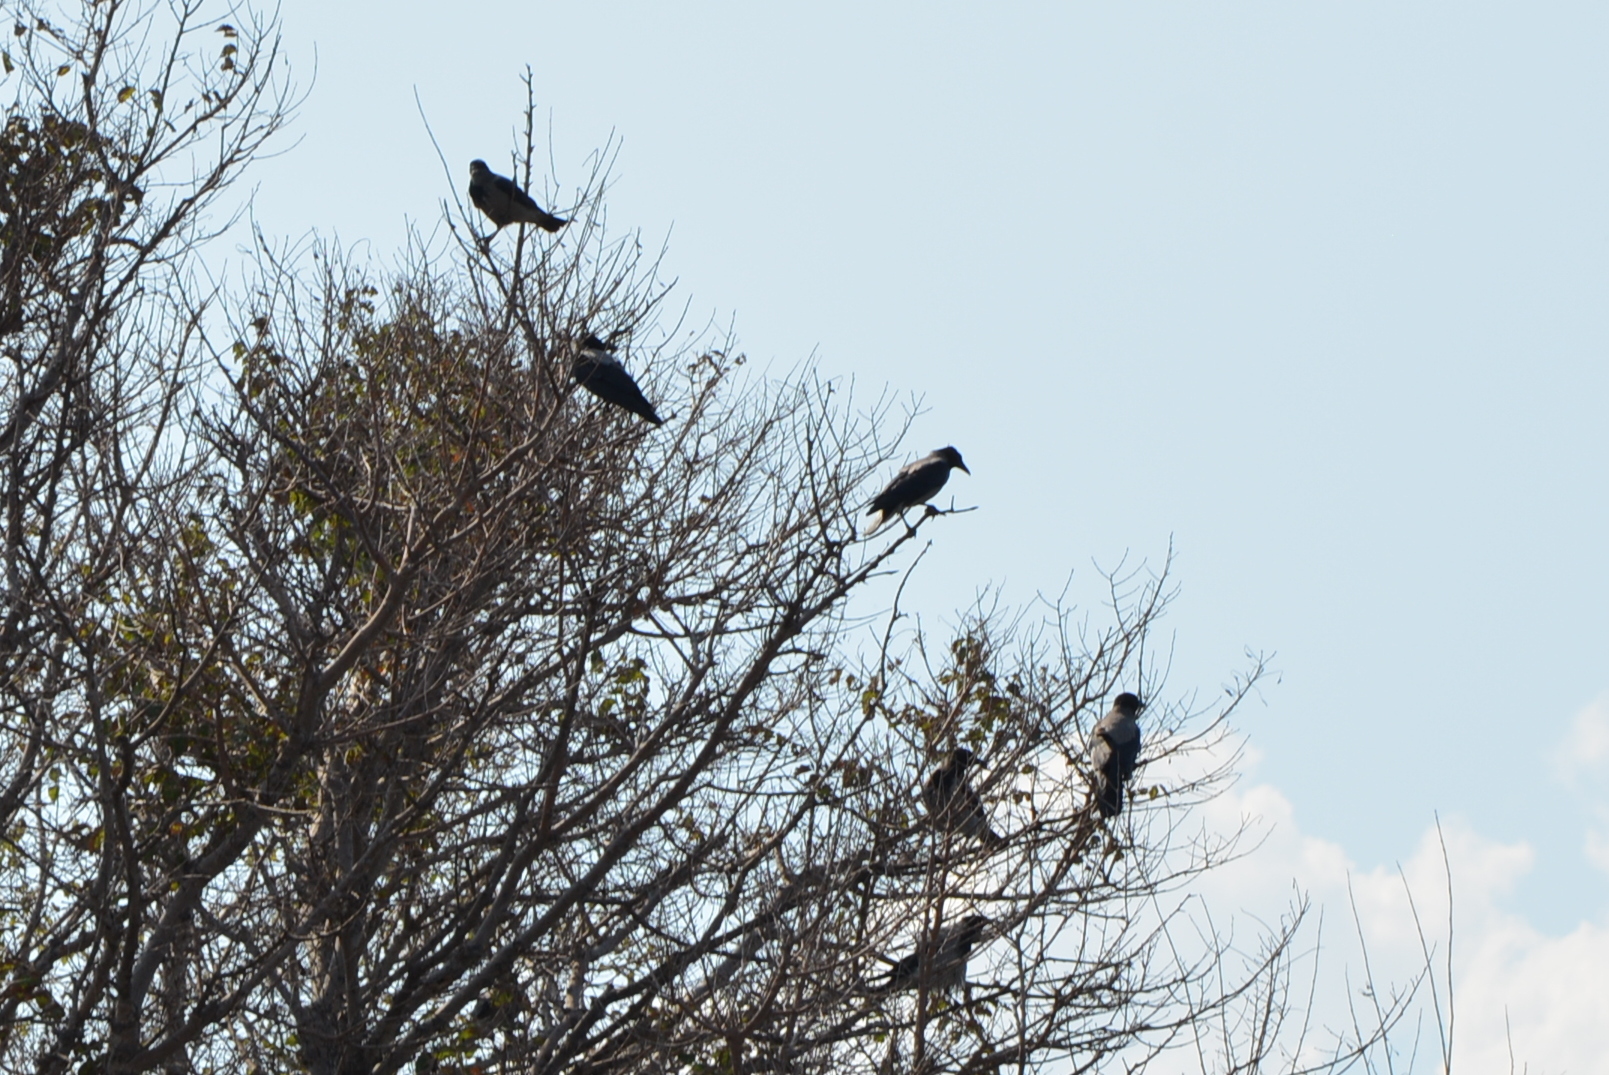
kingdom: Animalia
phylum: Chordata
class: Aves
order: Passeriformes
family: Corvidae
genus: Corvus
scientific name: Corvus cornix
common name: Hooded crow
